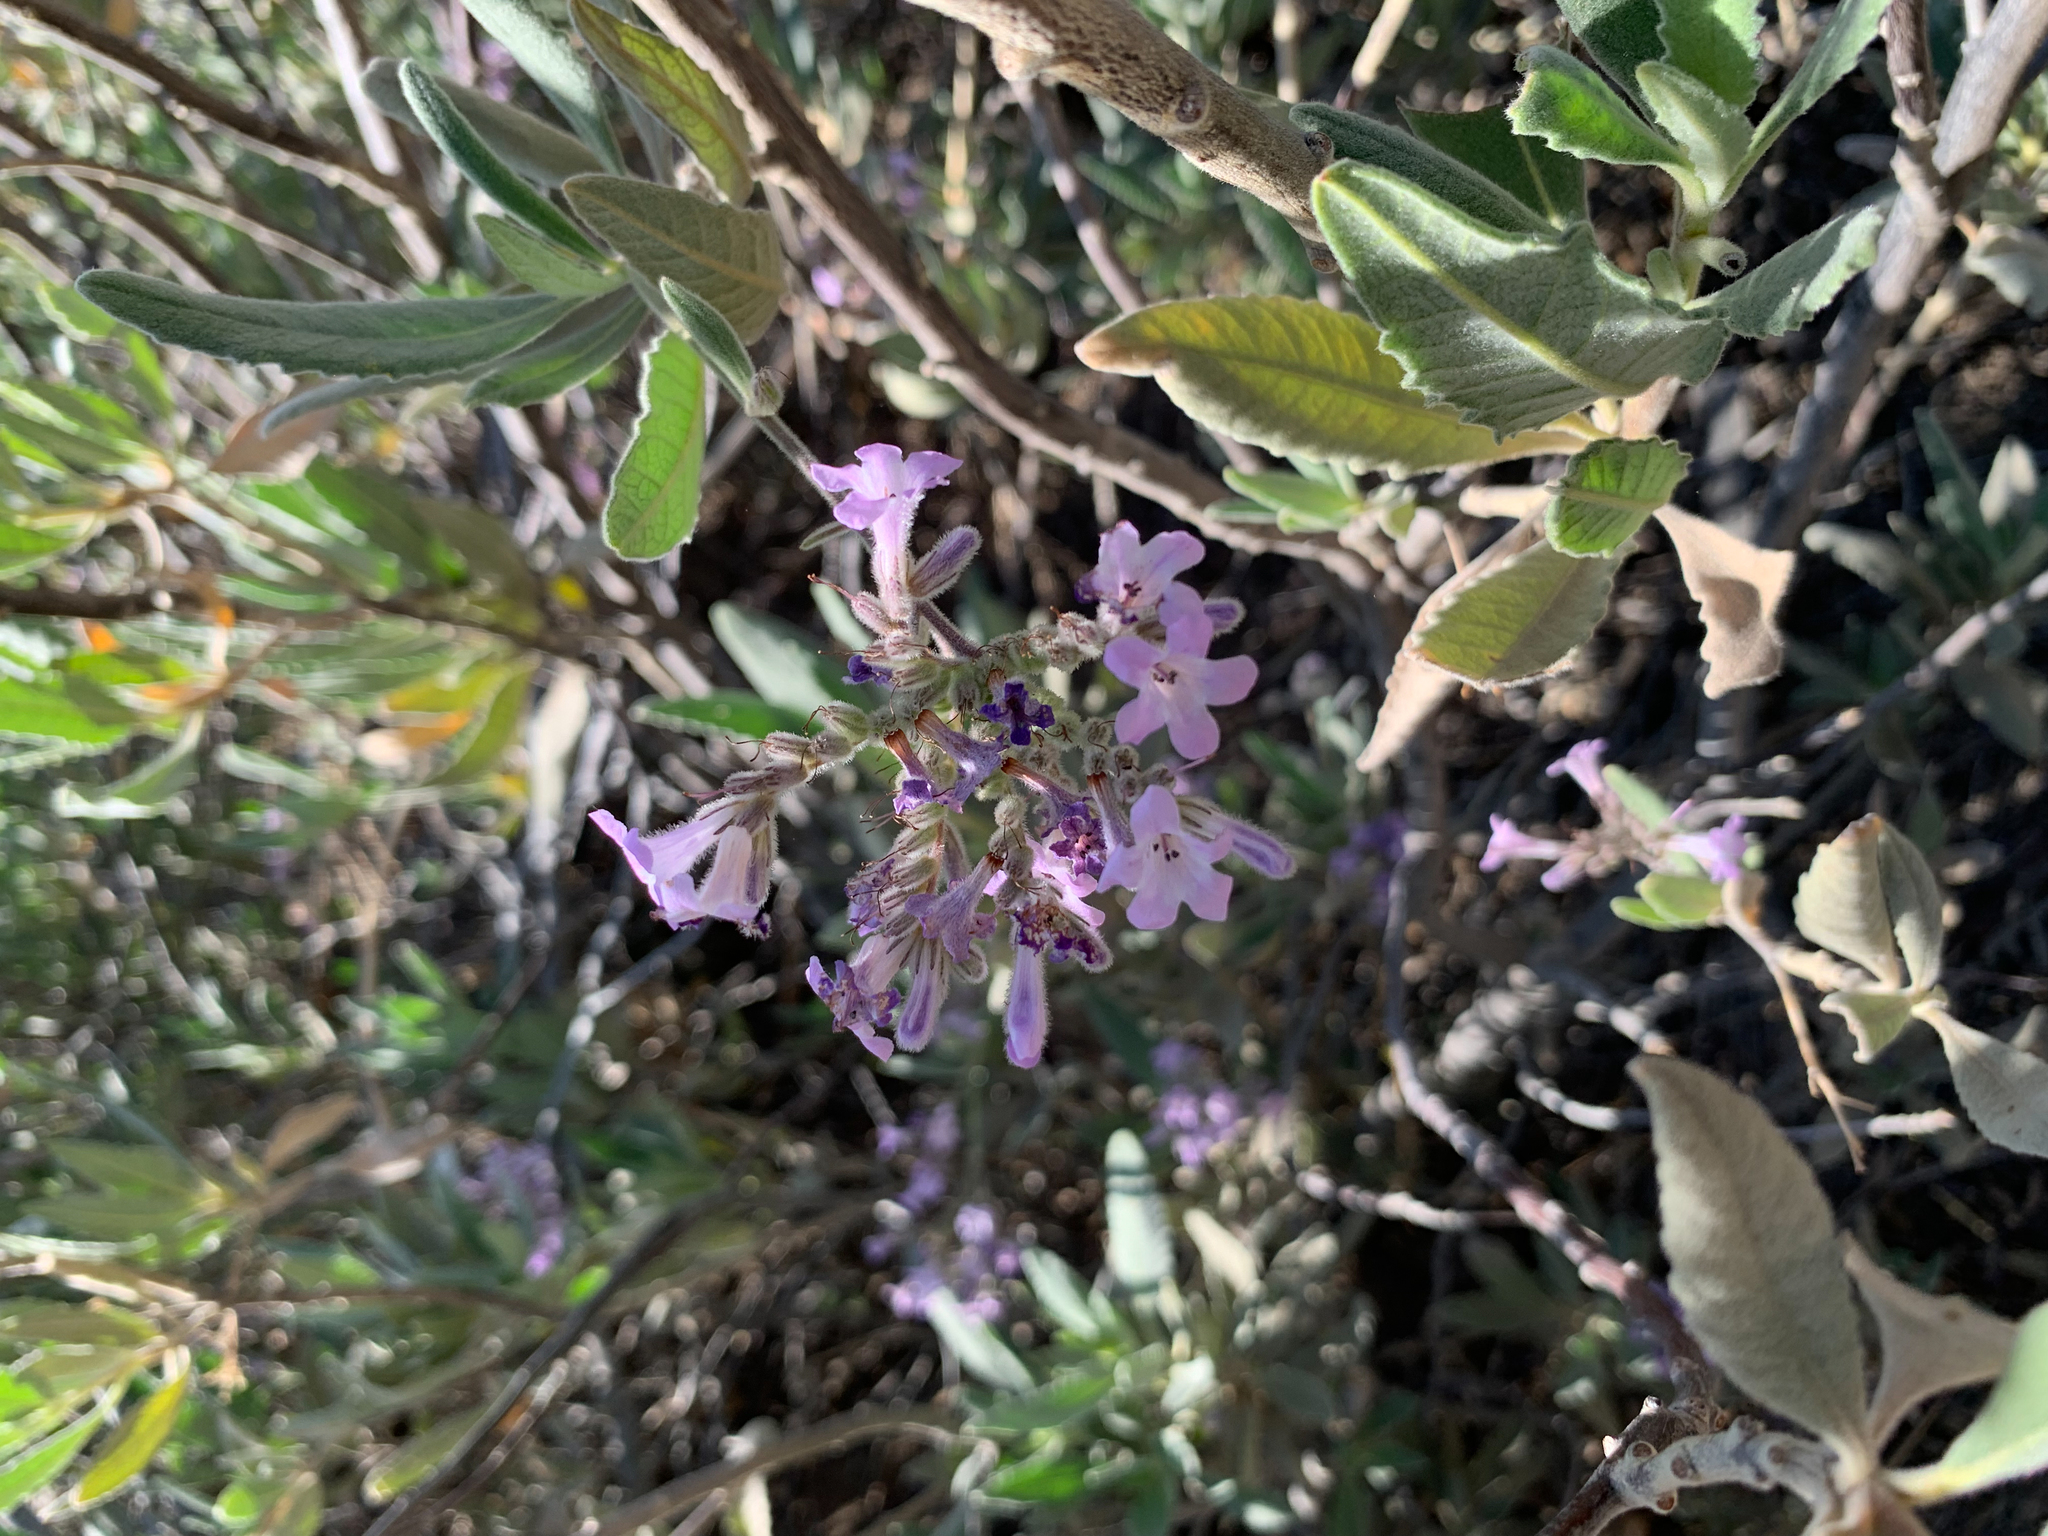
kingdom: Plantae
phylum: Tracheophyta
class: Magnoliopsida
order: Boraginales
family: Namaceae
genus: Eriodictyon
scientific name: Eriodictyon crassifolium
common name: Thick-leaf yerba-santa
